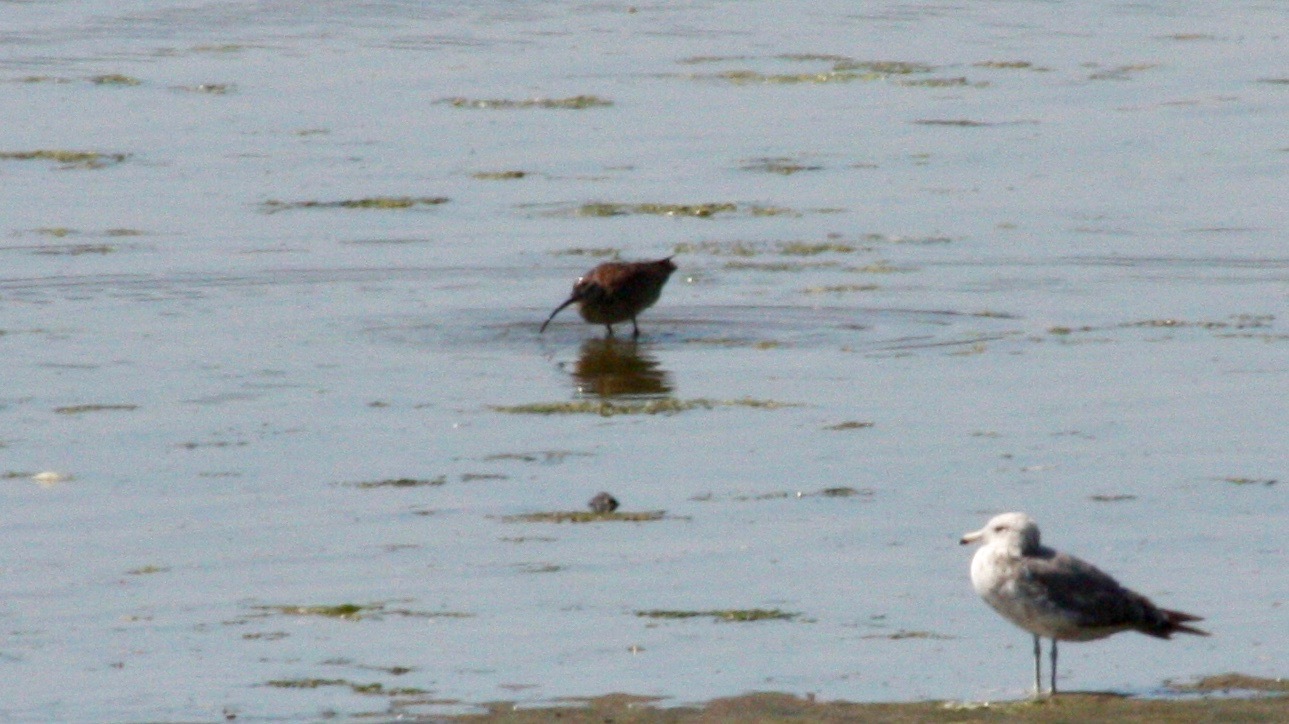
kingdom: Animalia
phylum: Chordata
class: Aves
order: Charadriiformes
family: Scolopacidae
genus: Numenius
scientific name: Numenius phaeopus
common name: Whimbrel
